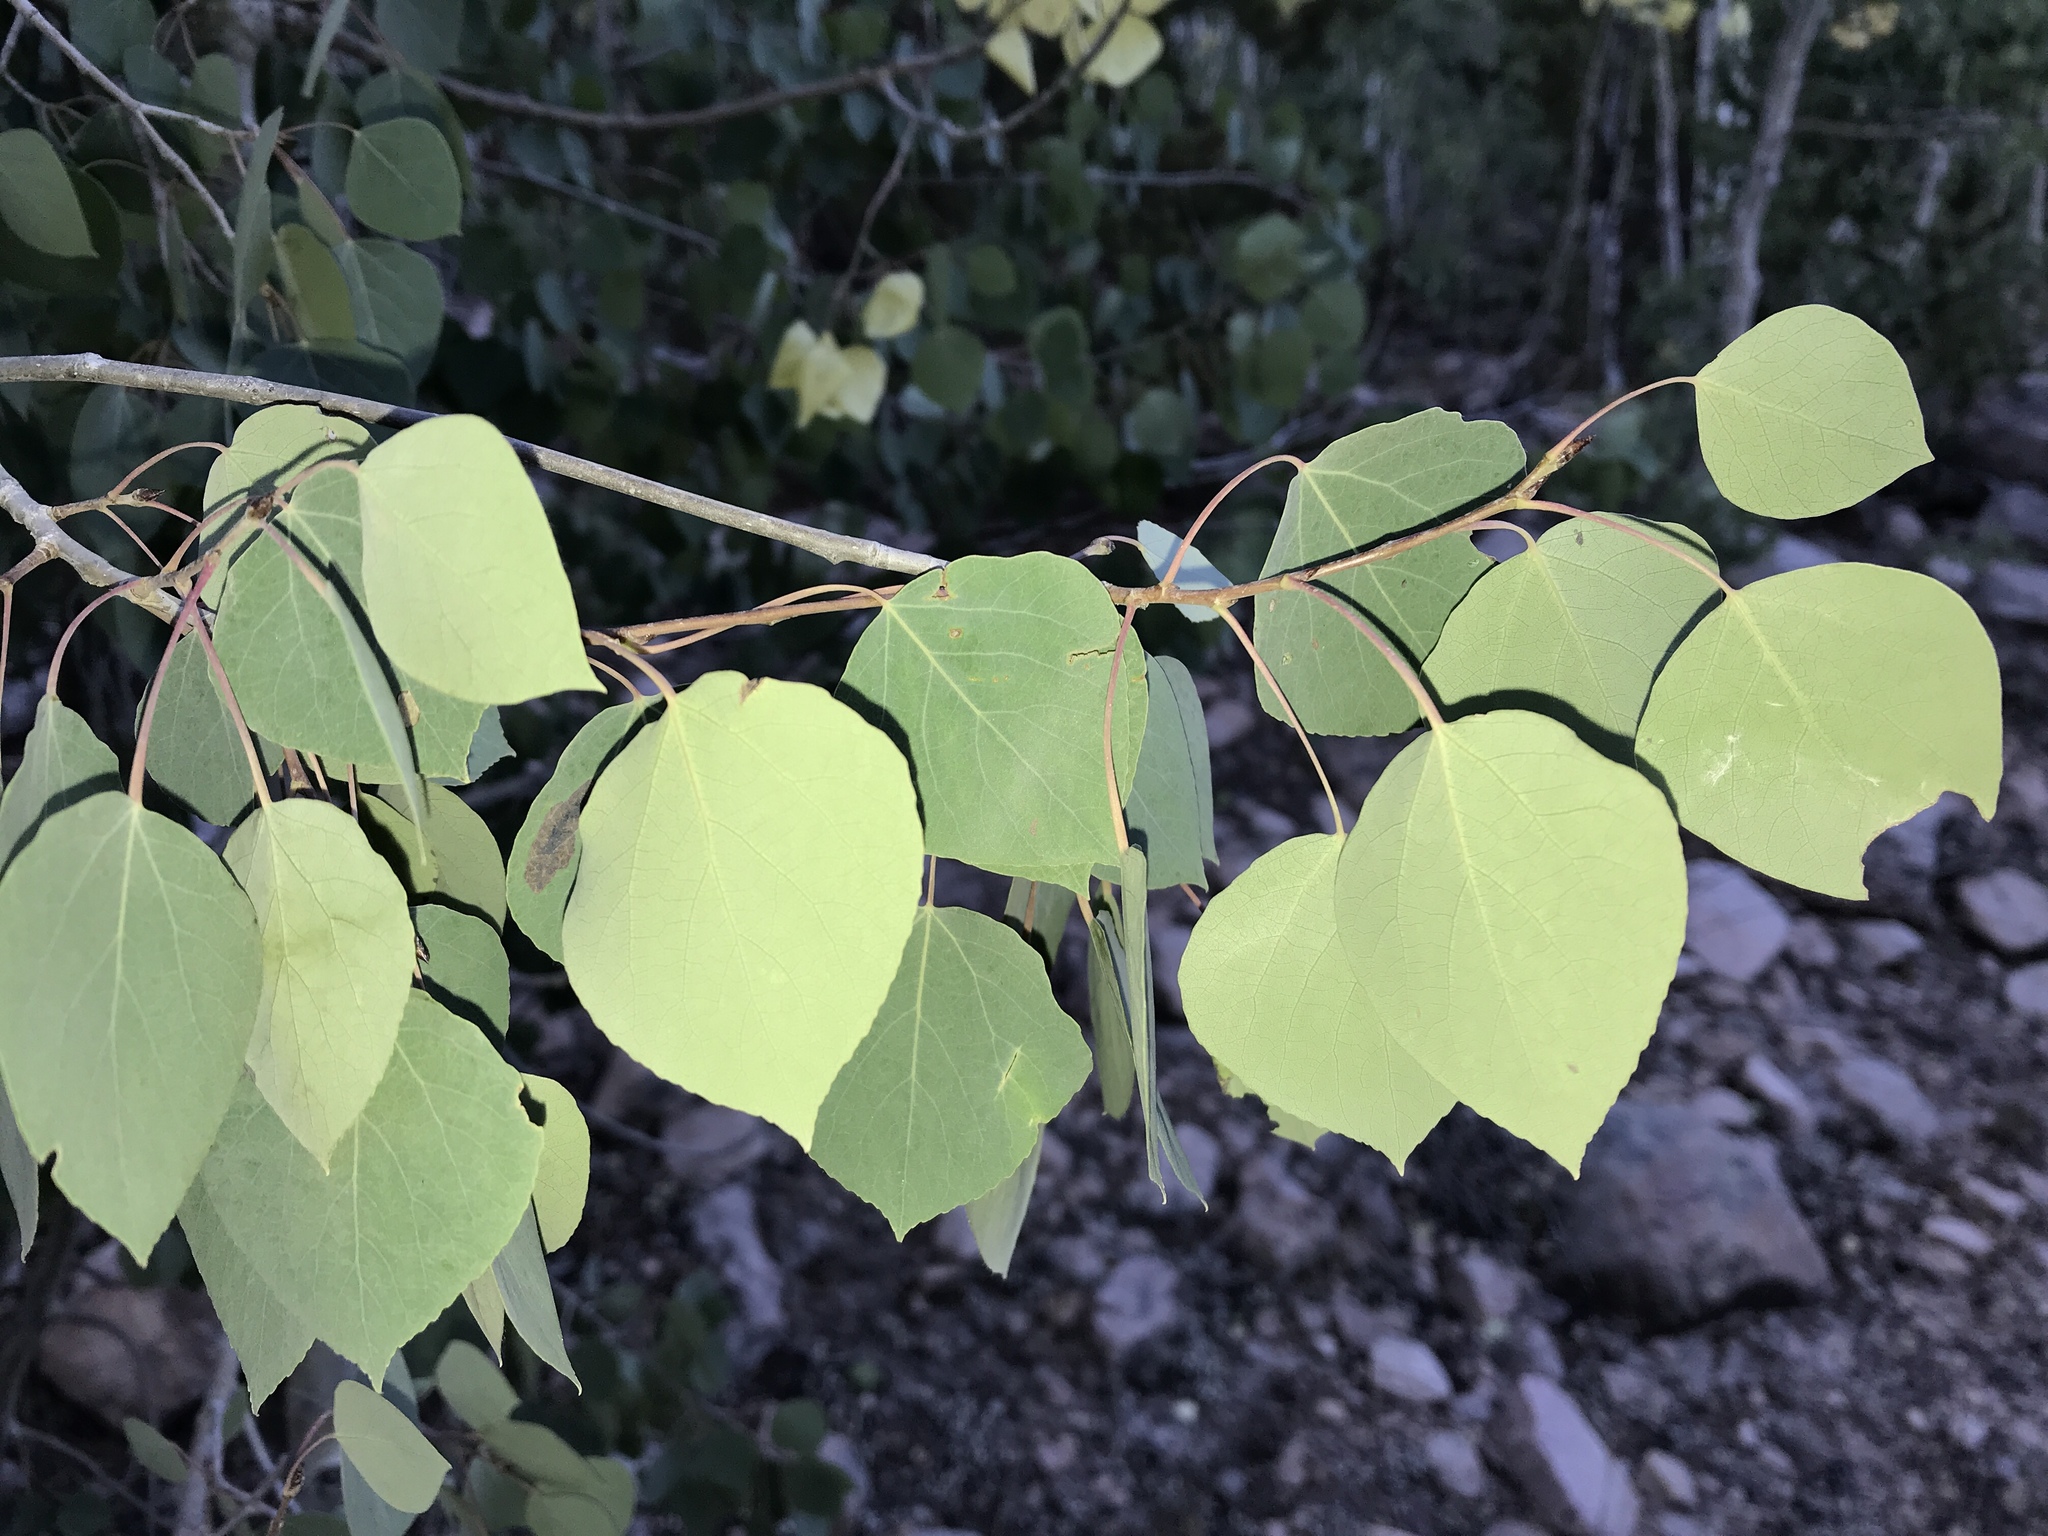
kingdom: Plantae
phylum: Tracheophyta
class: Magnoliopsida
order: Malpighiales
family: Salicaceae
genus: Populus
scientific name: Populus tremuloides
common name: Quaking aspen
